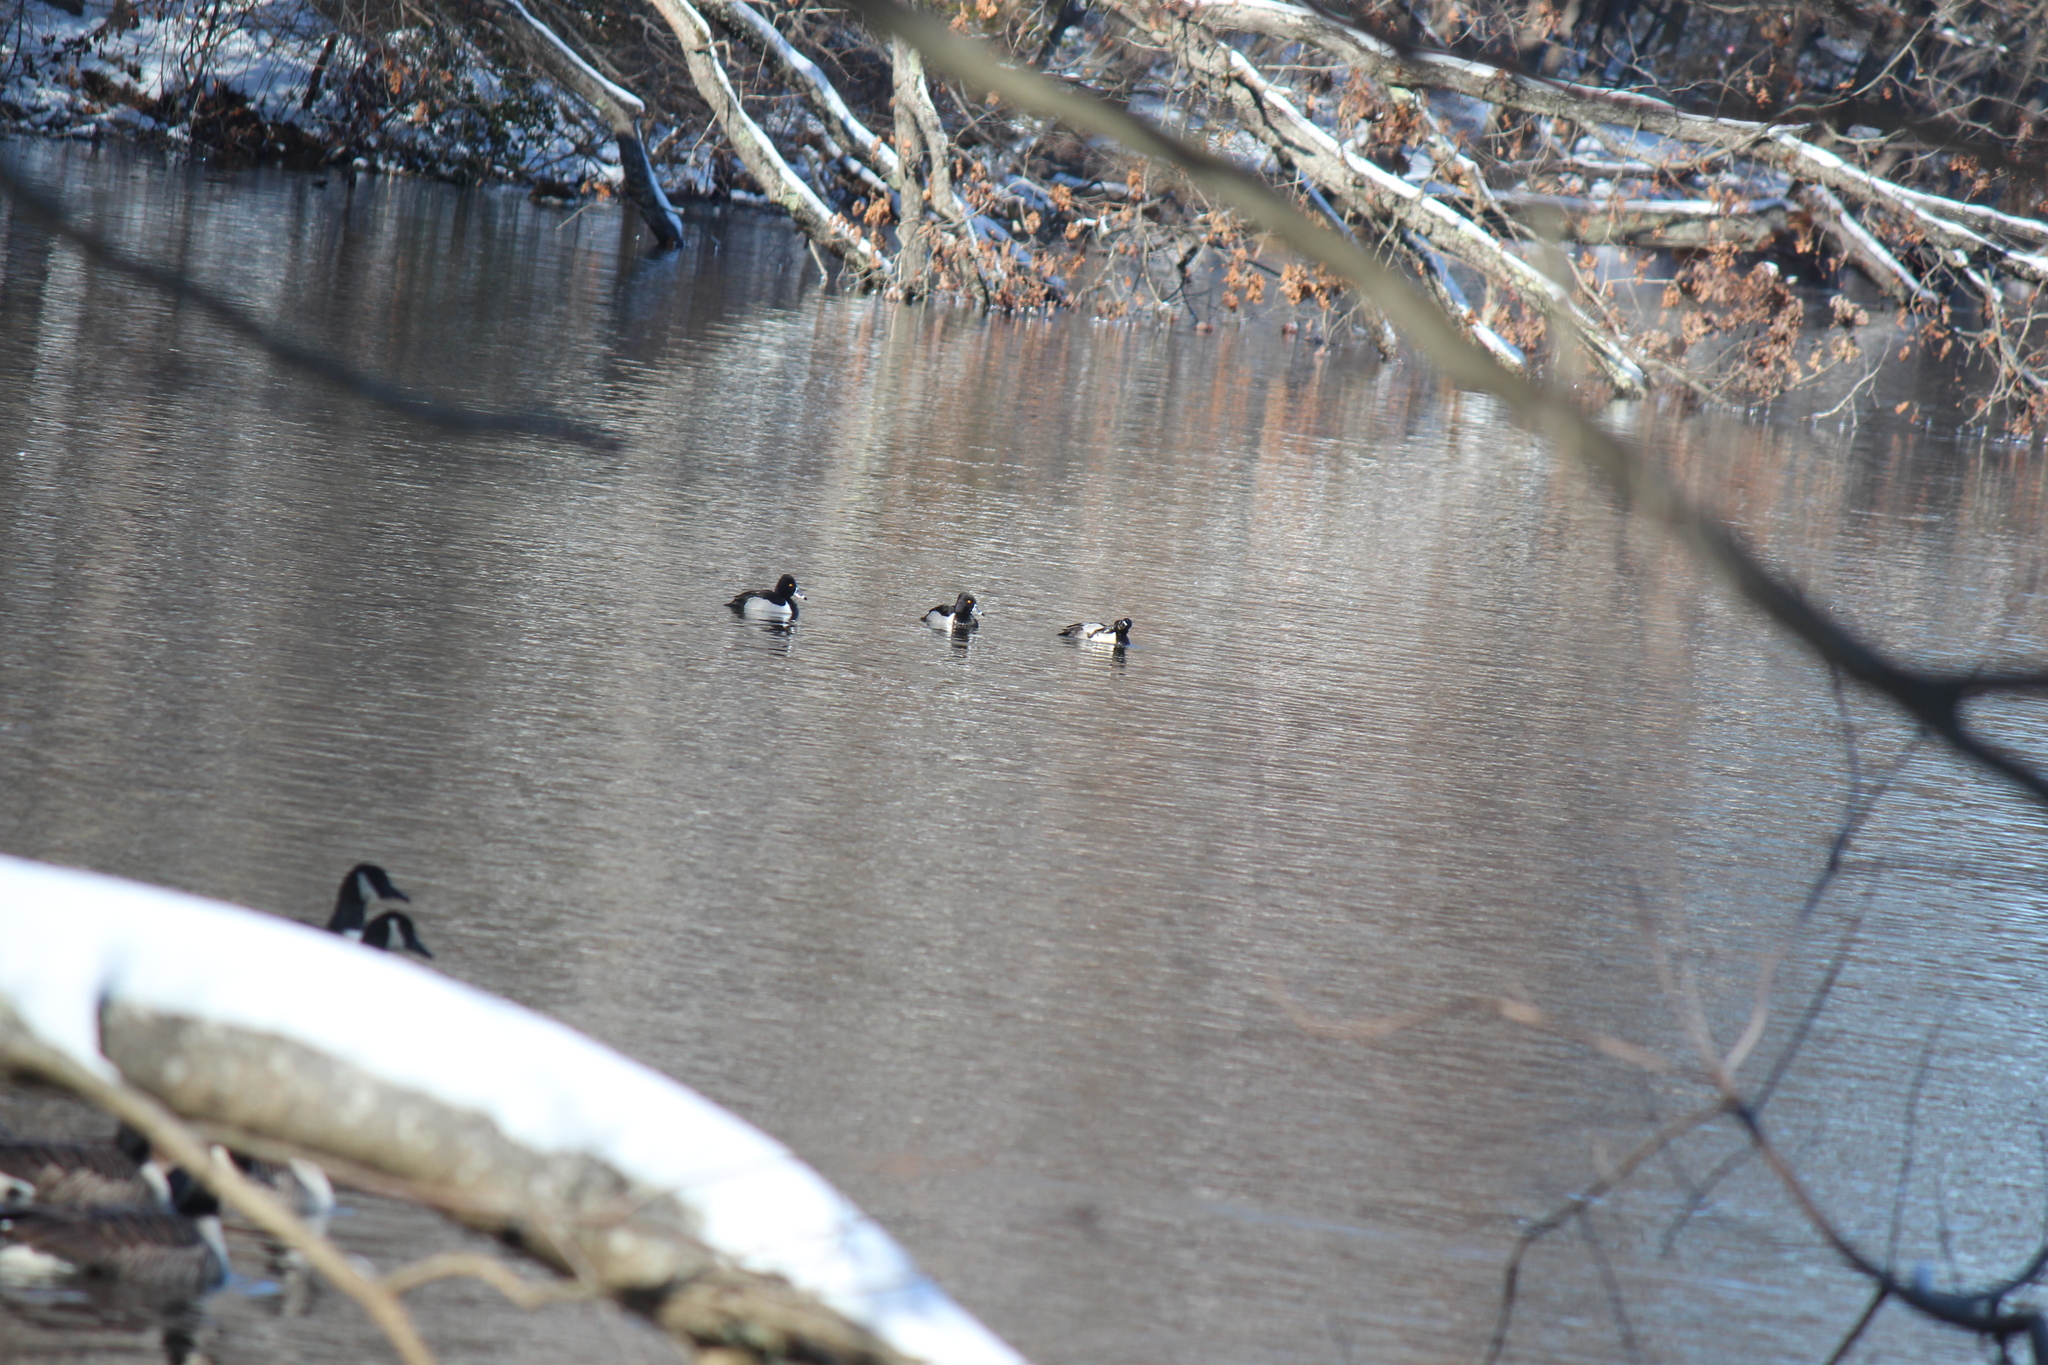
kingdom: Animalia
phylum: Chordata
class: Aves
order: Anseriformes
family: Anatidae
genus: Aythya
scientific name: Aythya collaris
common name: Ring-necked duck
